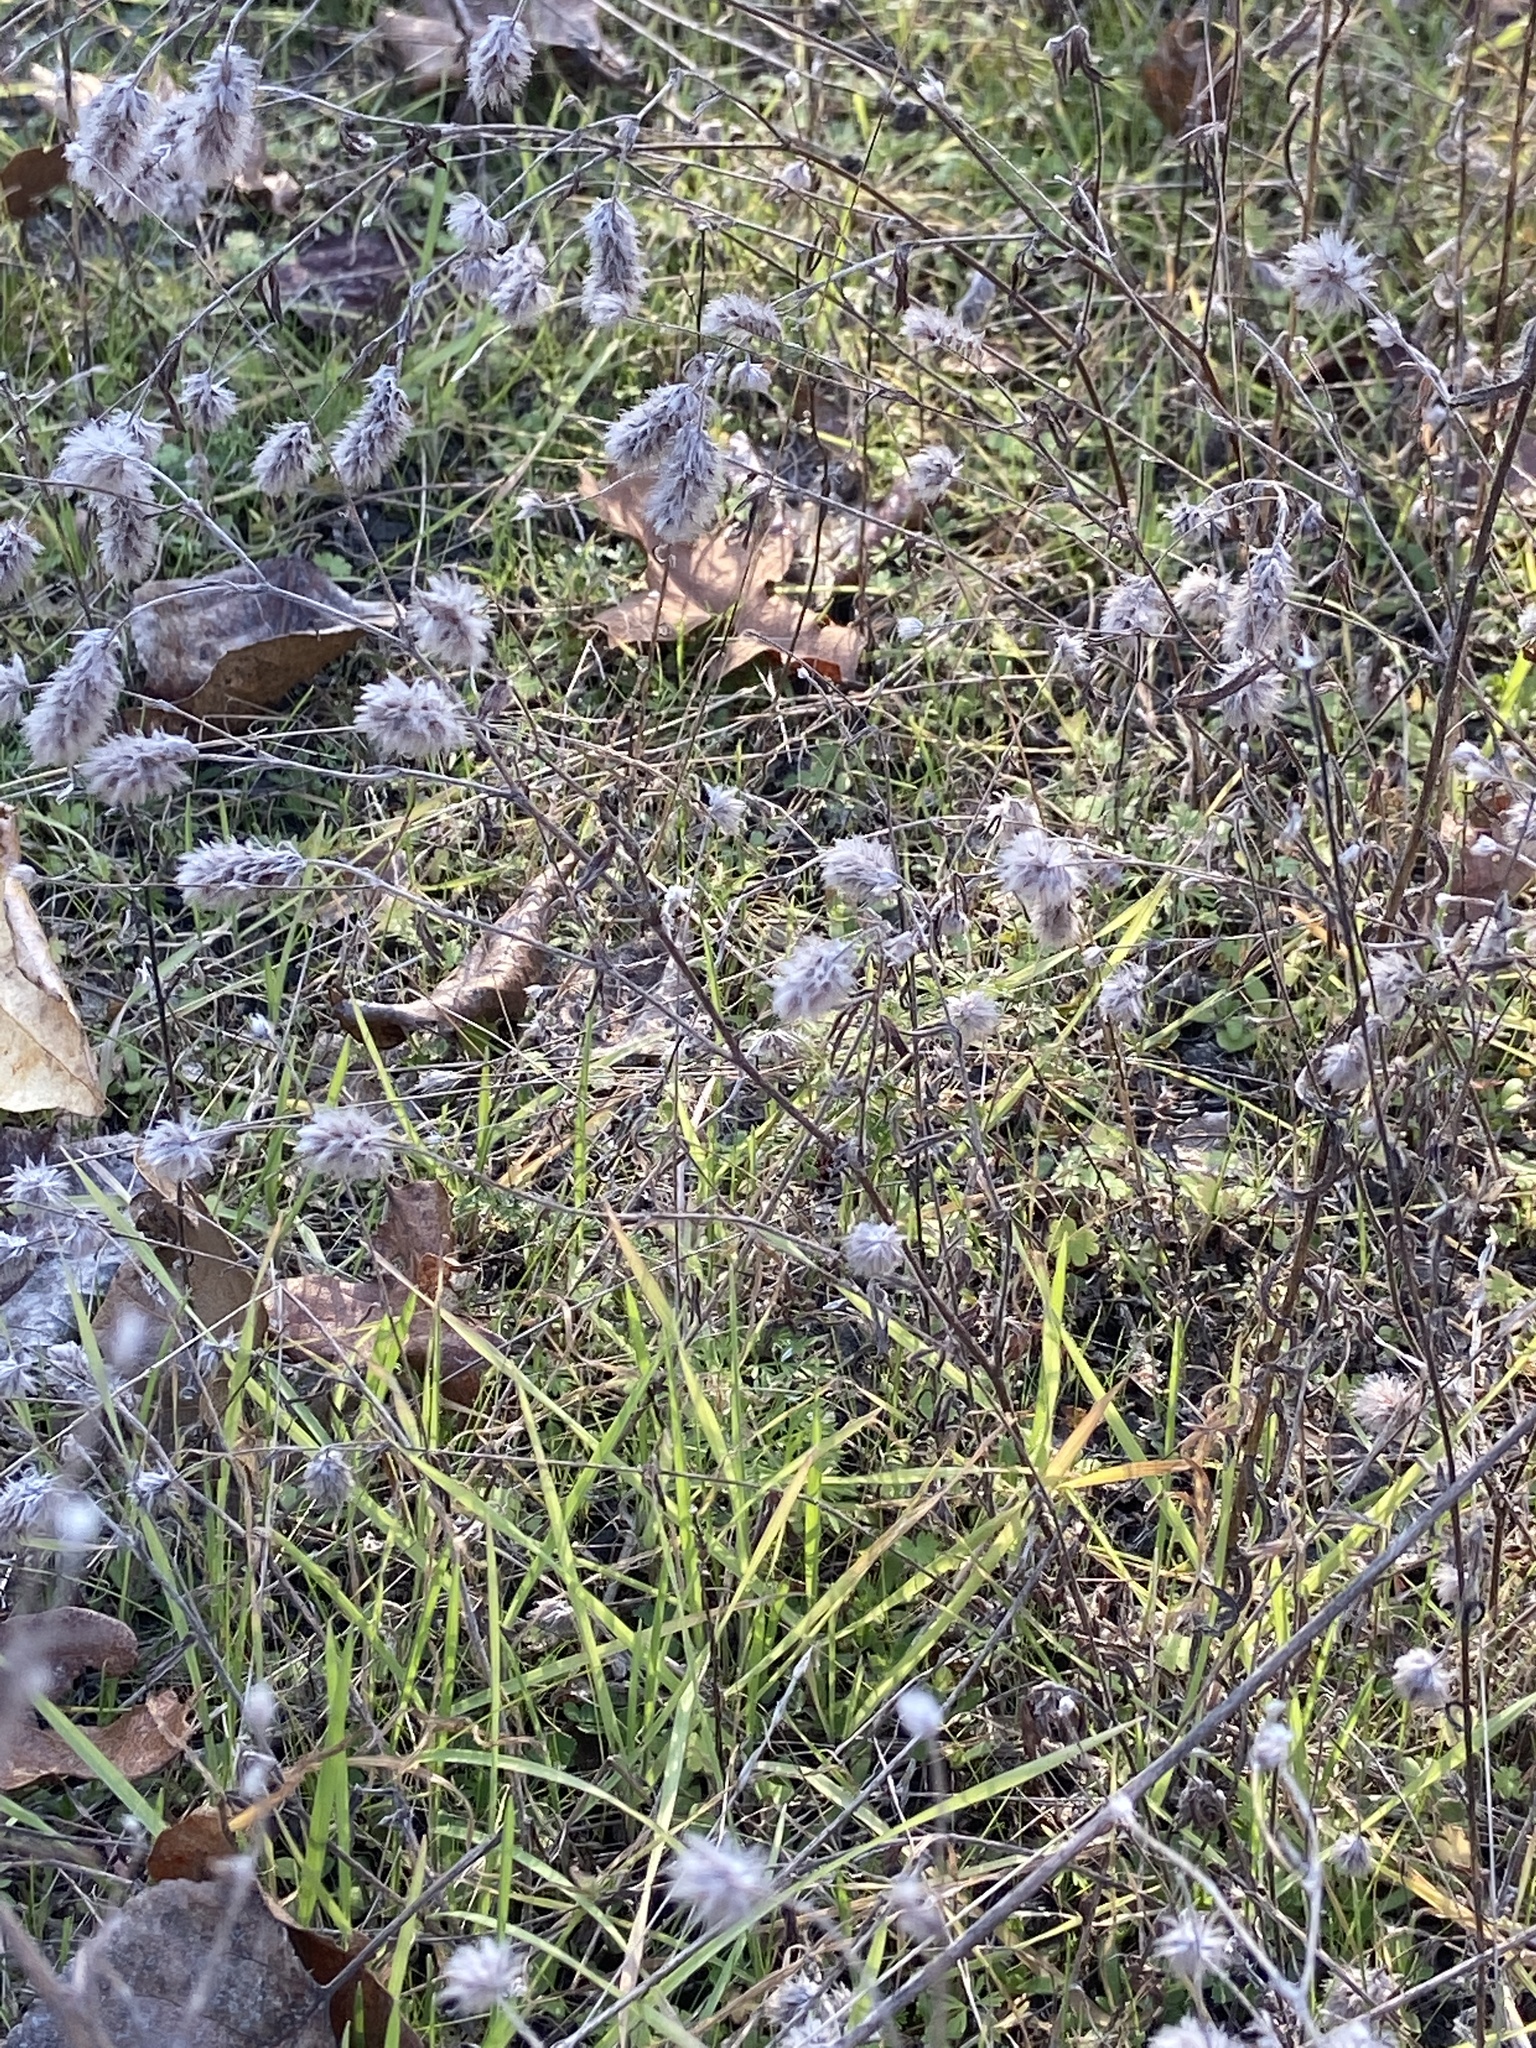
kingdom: Plantae
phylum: Tracheophyta
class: Magnoliopsida
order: Fabales
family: Fabaceae
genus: Trifolium
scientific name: Trifolium arvense
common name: Hare's-foot clover
